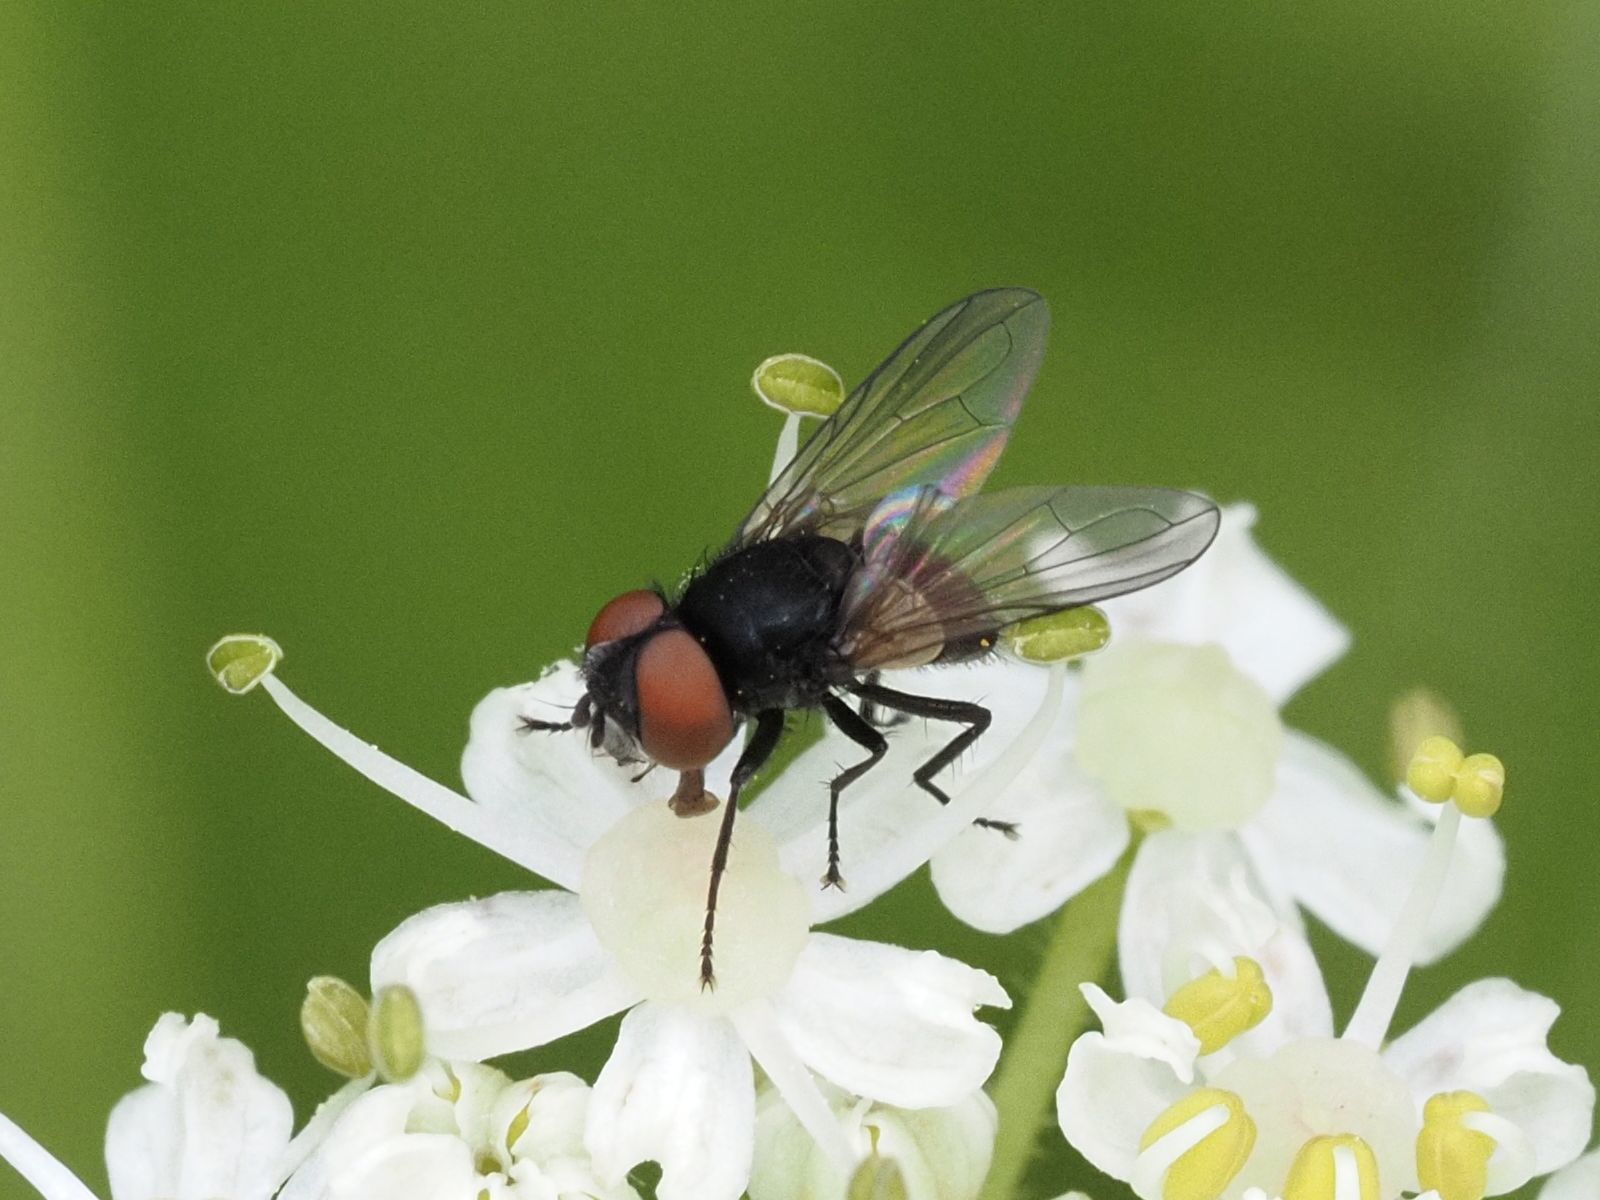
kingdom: Animalia
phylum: Arthropoda
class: Insecta
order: Diptera
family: Tachinidae
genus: Phasia
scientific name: Phasia barbifrons
